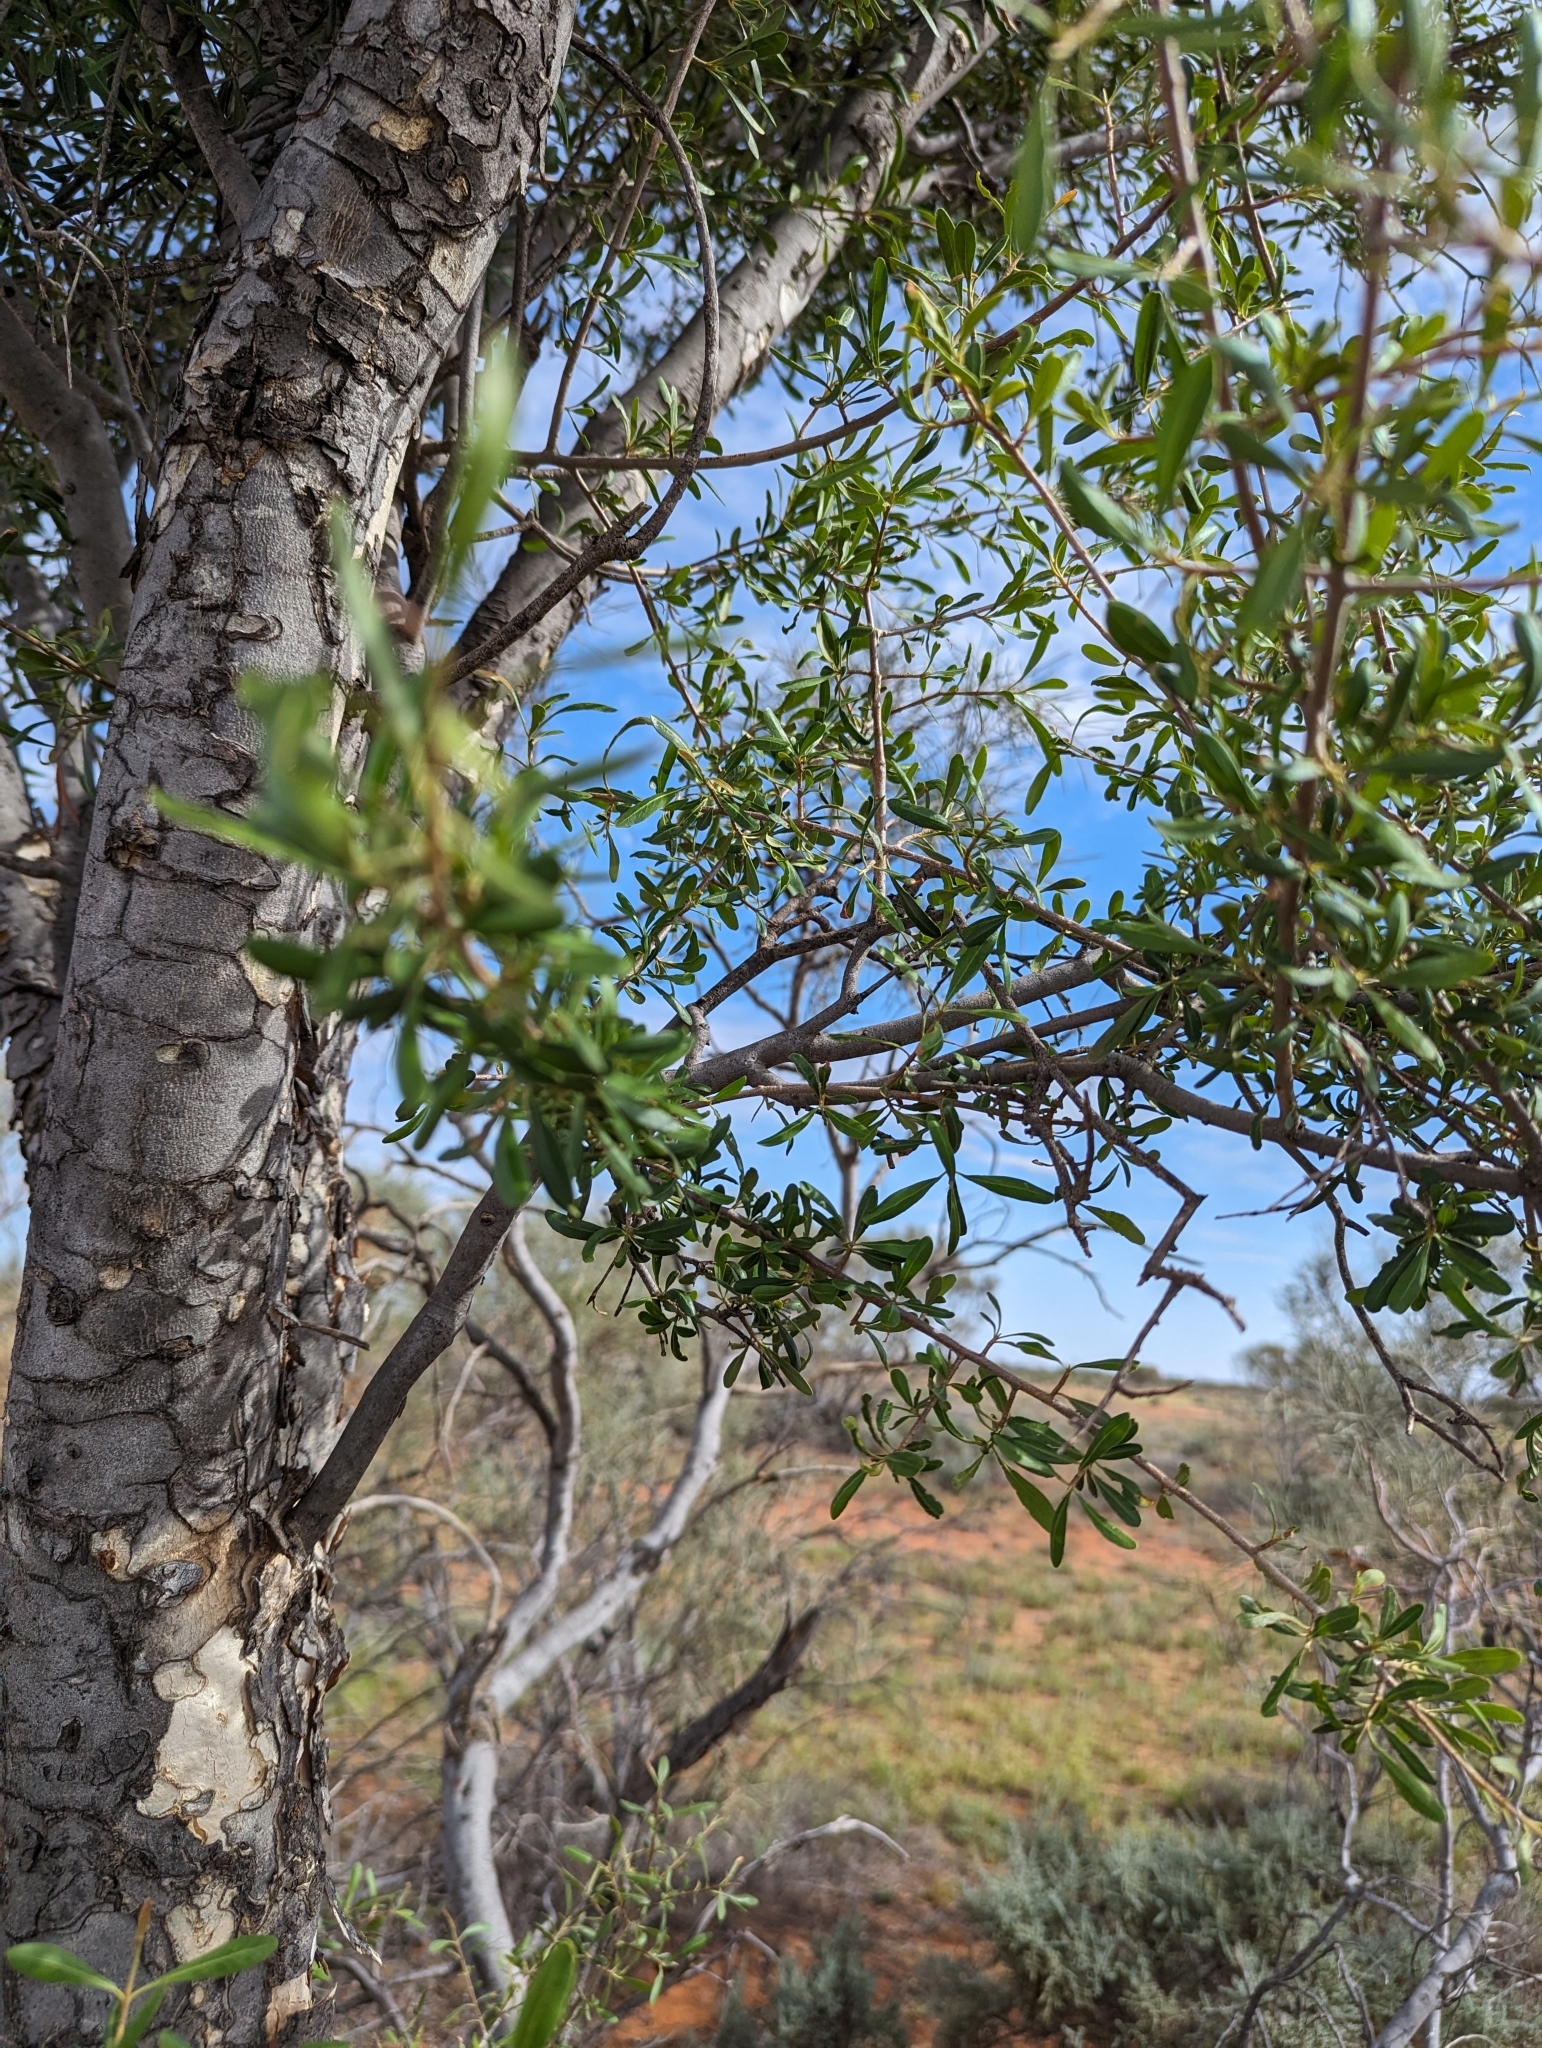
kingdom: Plantae
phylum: Tracheophyta
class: Magnoliopsida
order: Sapindales
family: Rutaceae
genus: Flindersia
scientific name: Flindersia maculosa
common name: Leopardtree
